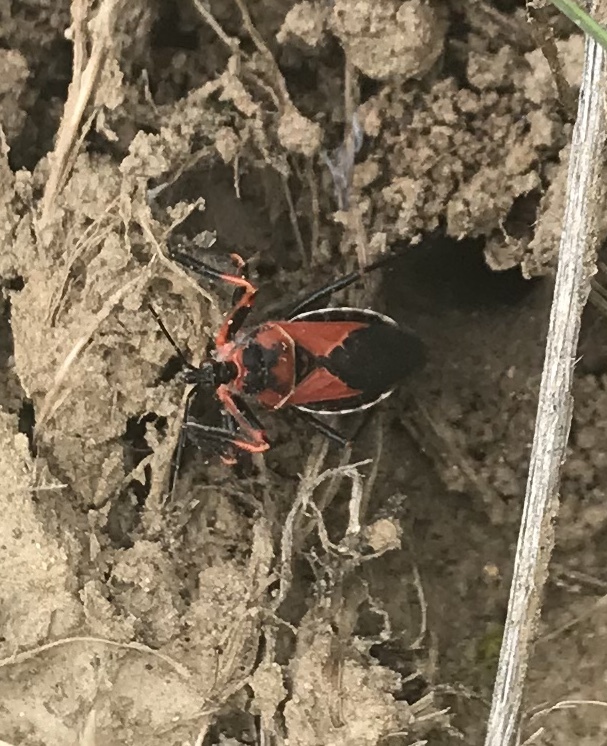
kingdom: Animalia
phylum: Arthropoda
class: Insecta
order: Hemiptera
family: Reduviidae
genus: Apiomerus
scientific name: Apiomerus californicus
